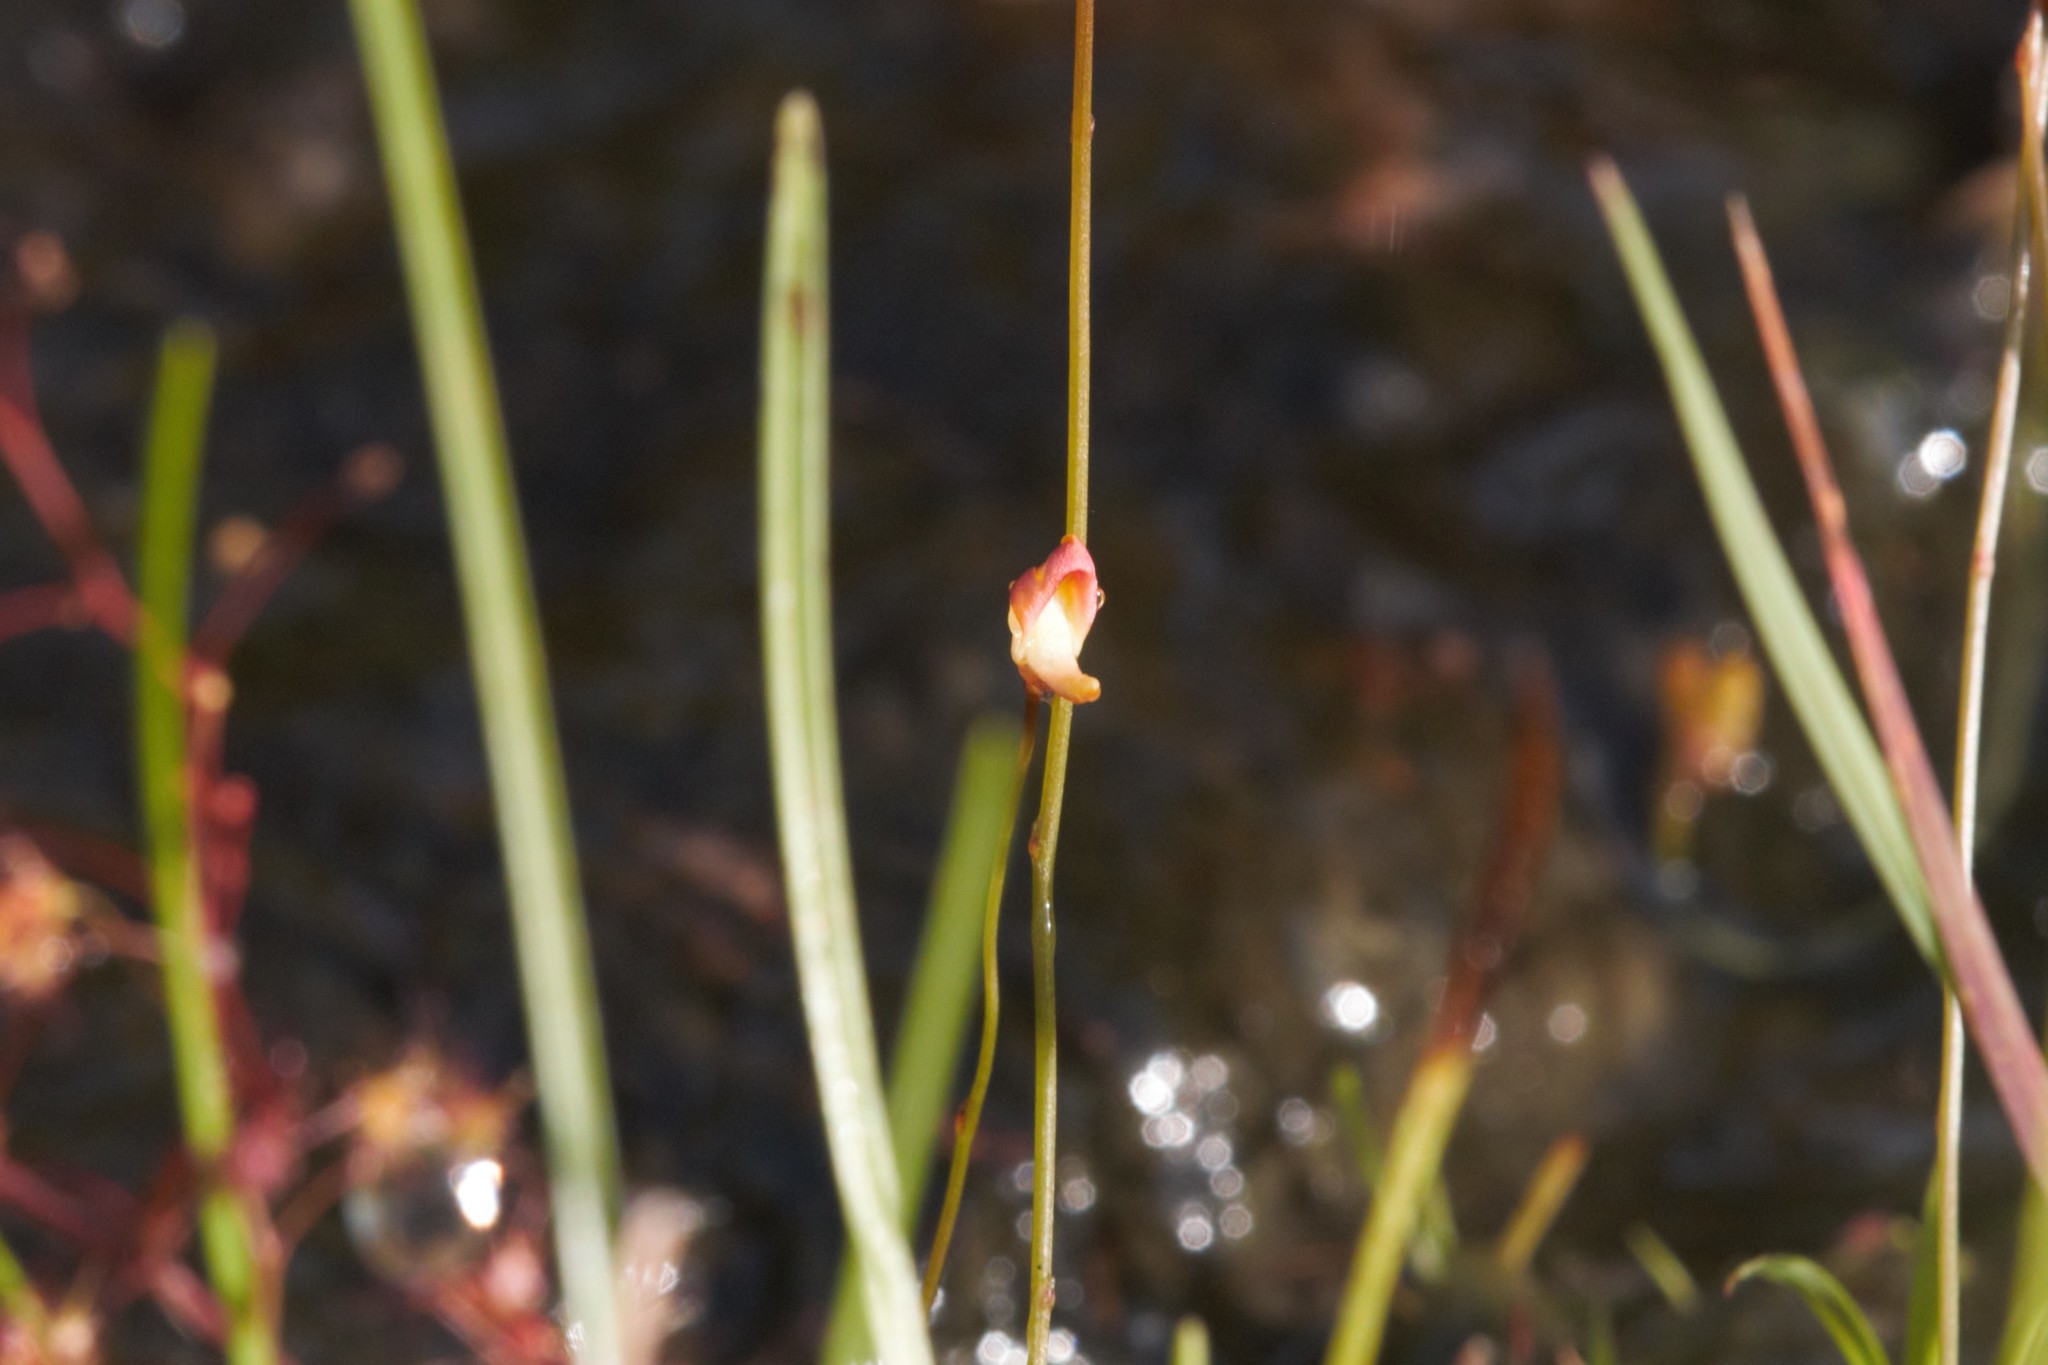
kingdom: Plantae
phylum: Tracheophyta
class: Magnoliopsida
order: Lamiales
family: Lentibulariaceae
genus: Utricularia
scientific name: Utricularia chrysantha
